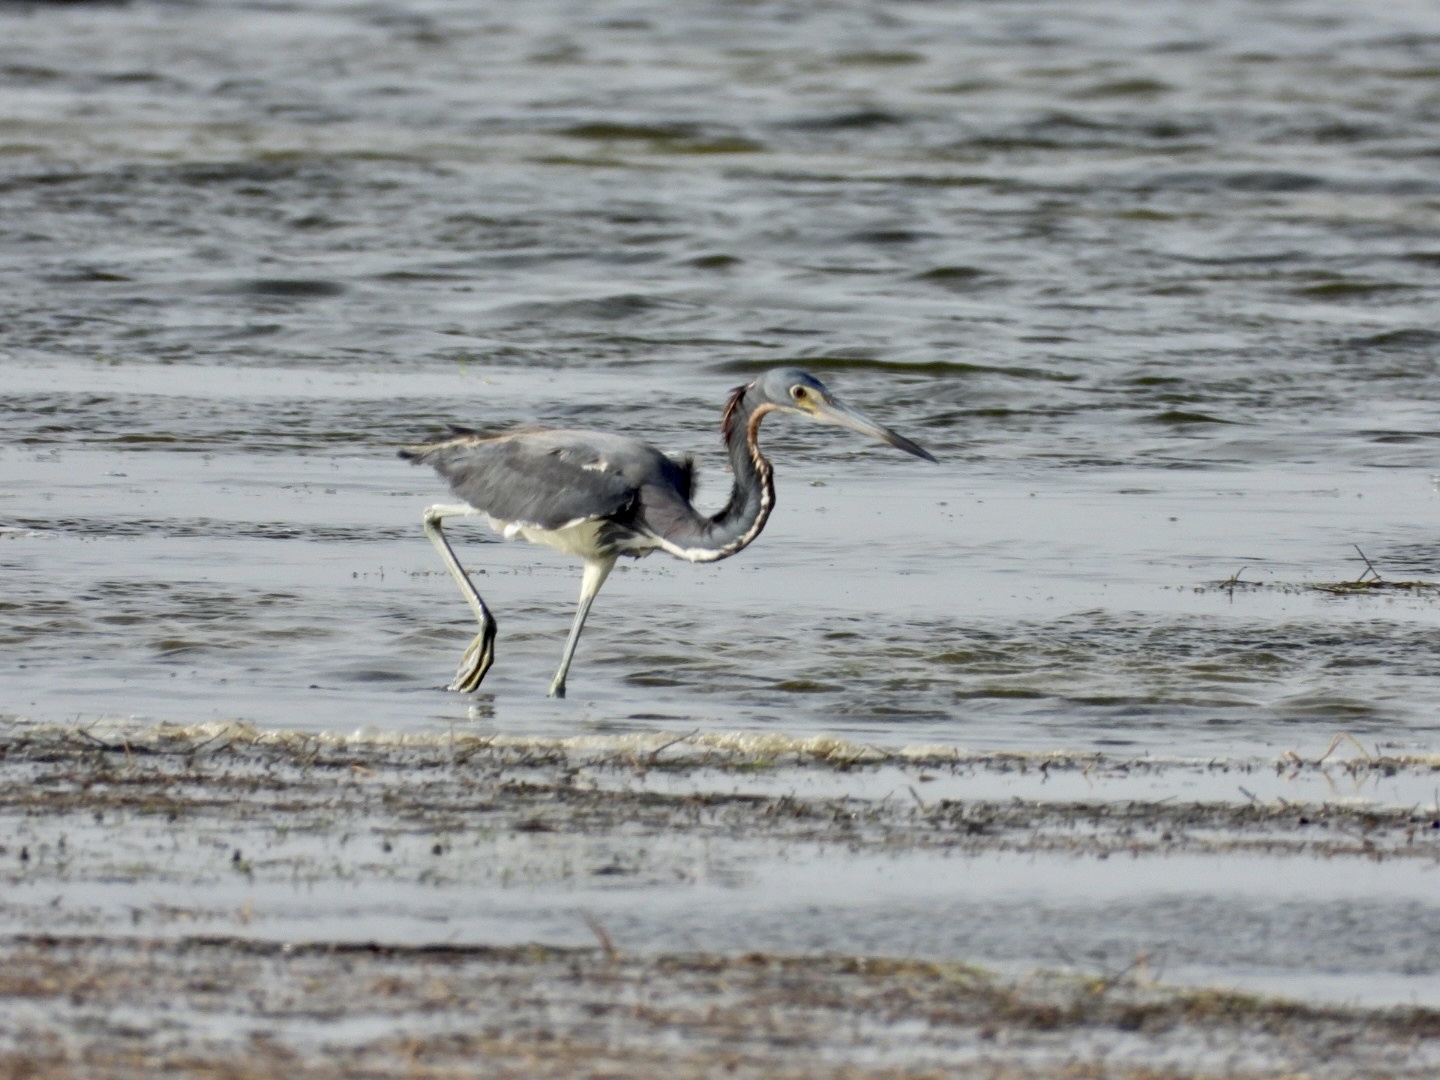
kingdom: Animalia
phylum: Chordata
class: Aves
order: Pelecaniformes
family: Ardeidae
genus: Egretta
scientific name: Egretta tricolor
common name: Tricolored heron
